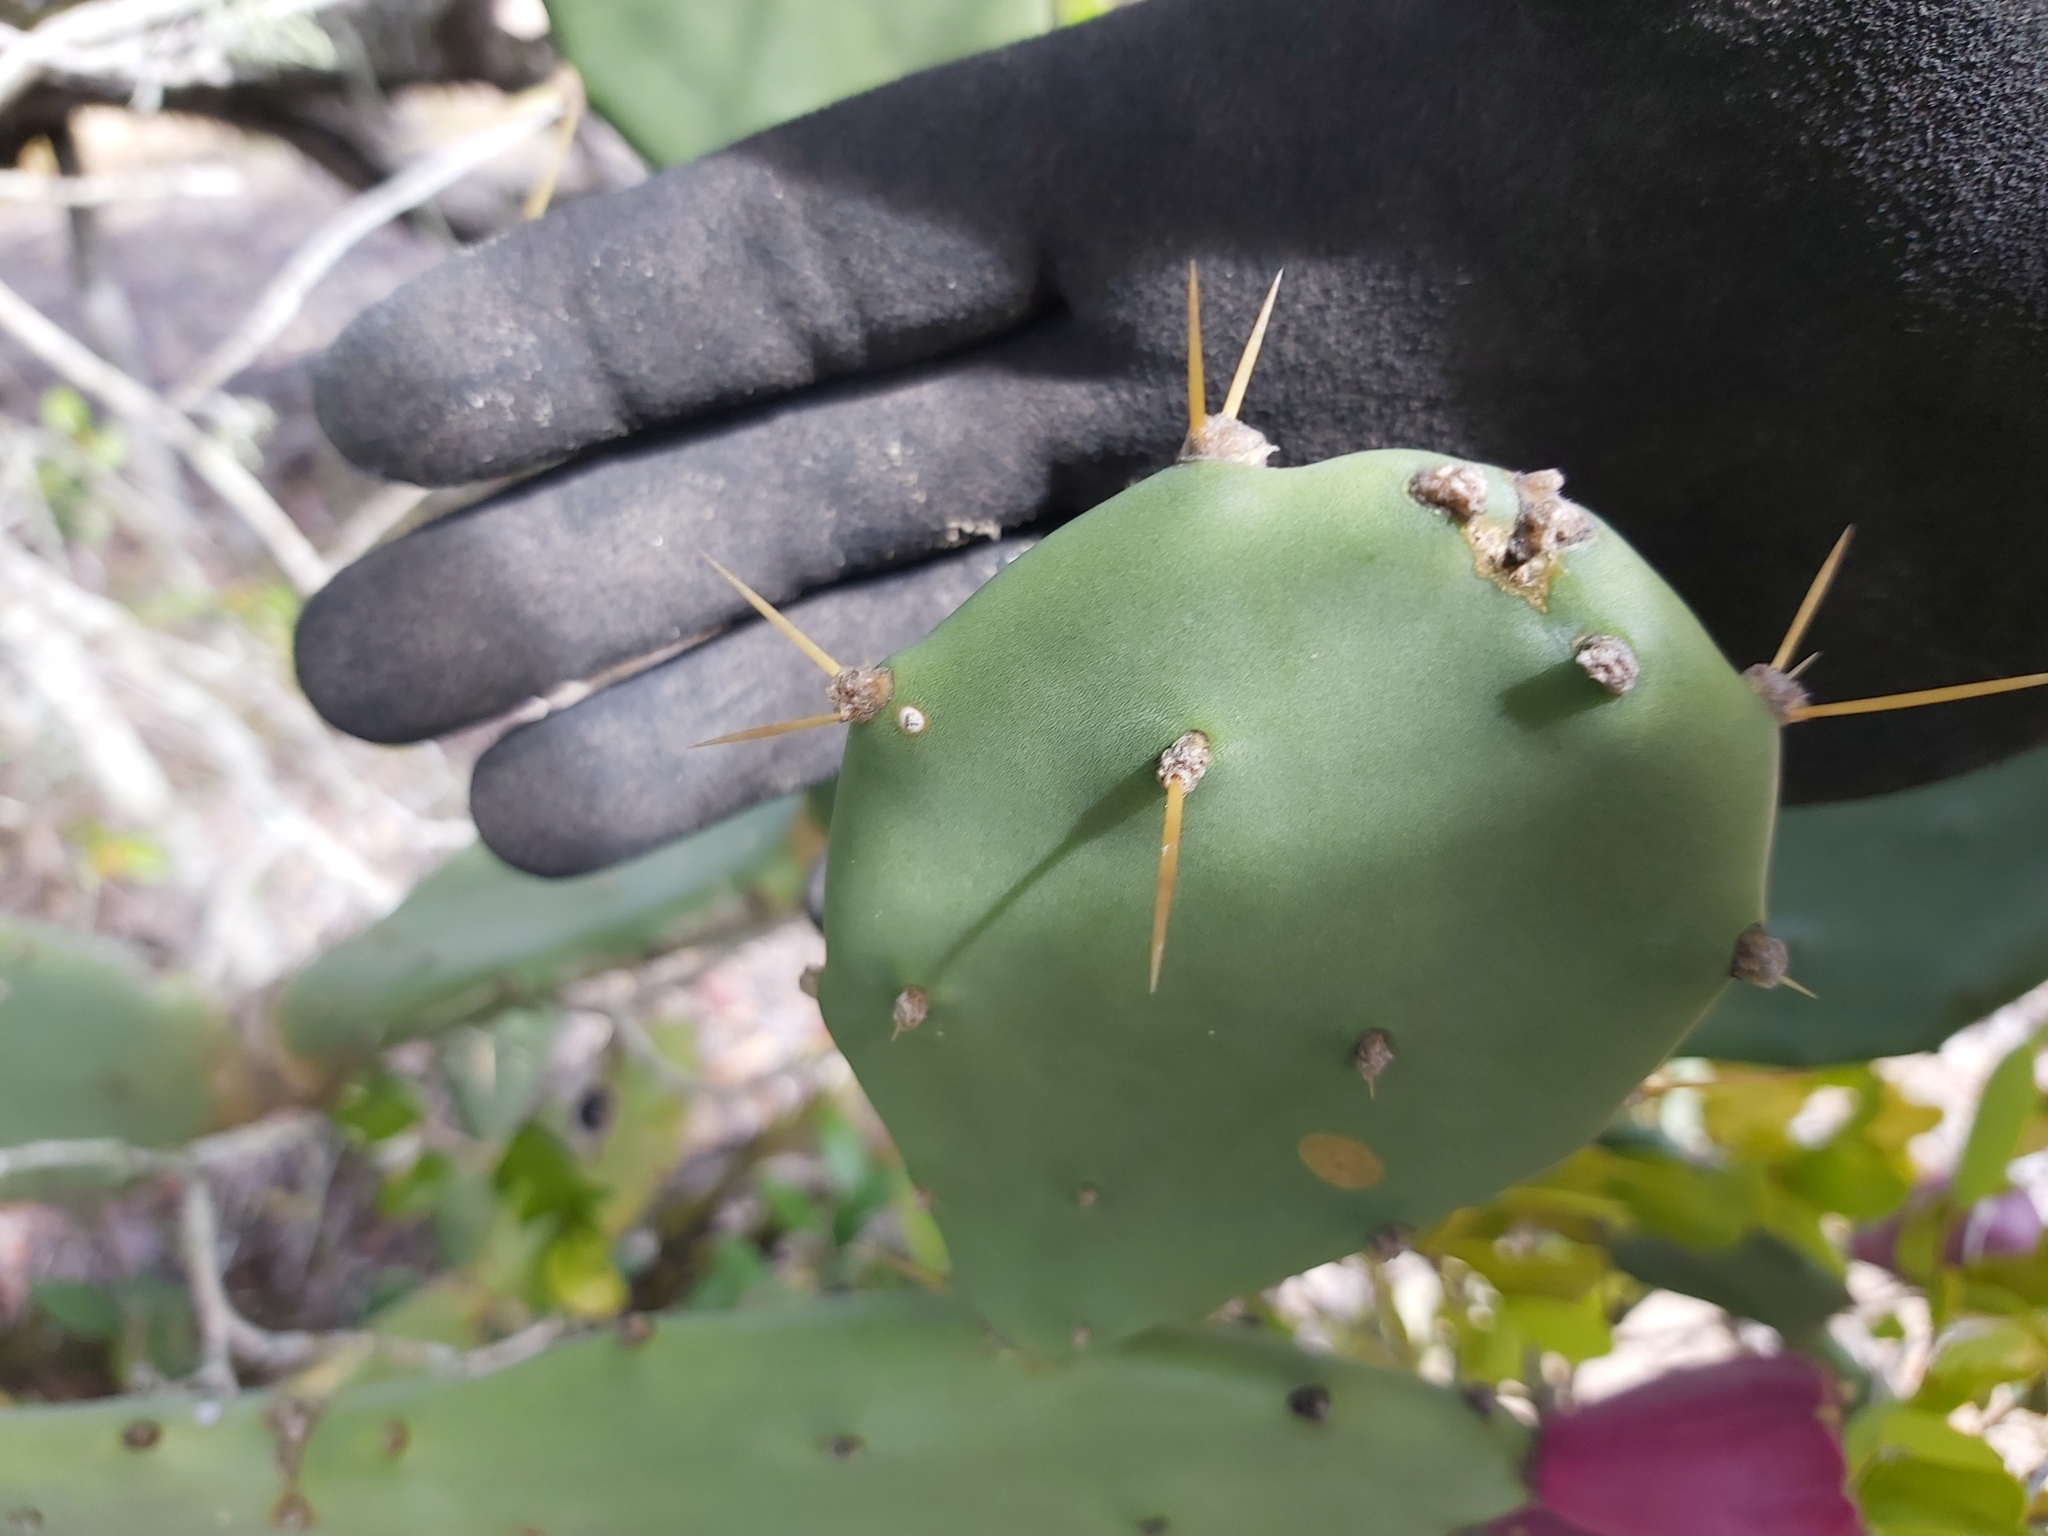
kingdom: Plantae
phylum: Tracheophyta
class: Magnoliopsida
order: Caryophyllales
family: Cactaceae
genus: Opuntia
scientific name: Opuntia stricta
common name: Erect pricklypear
